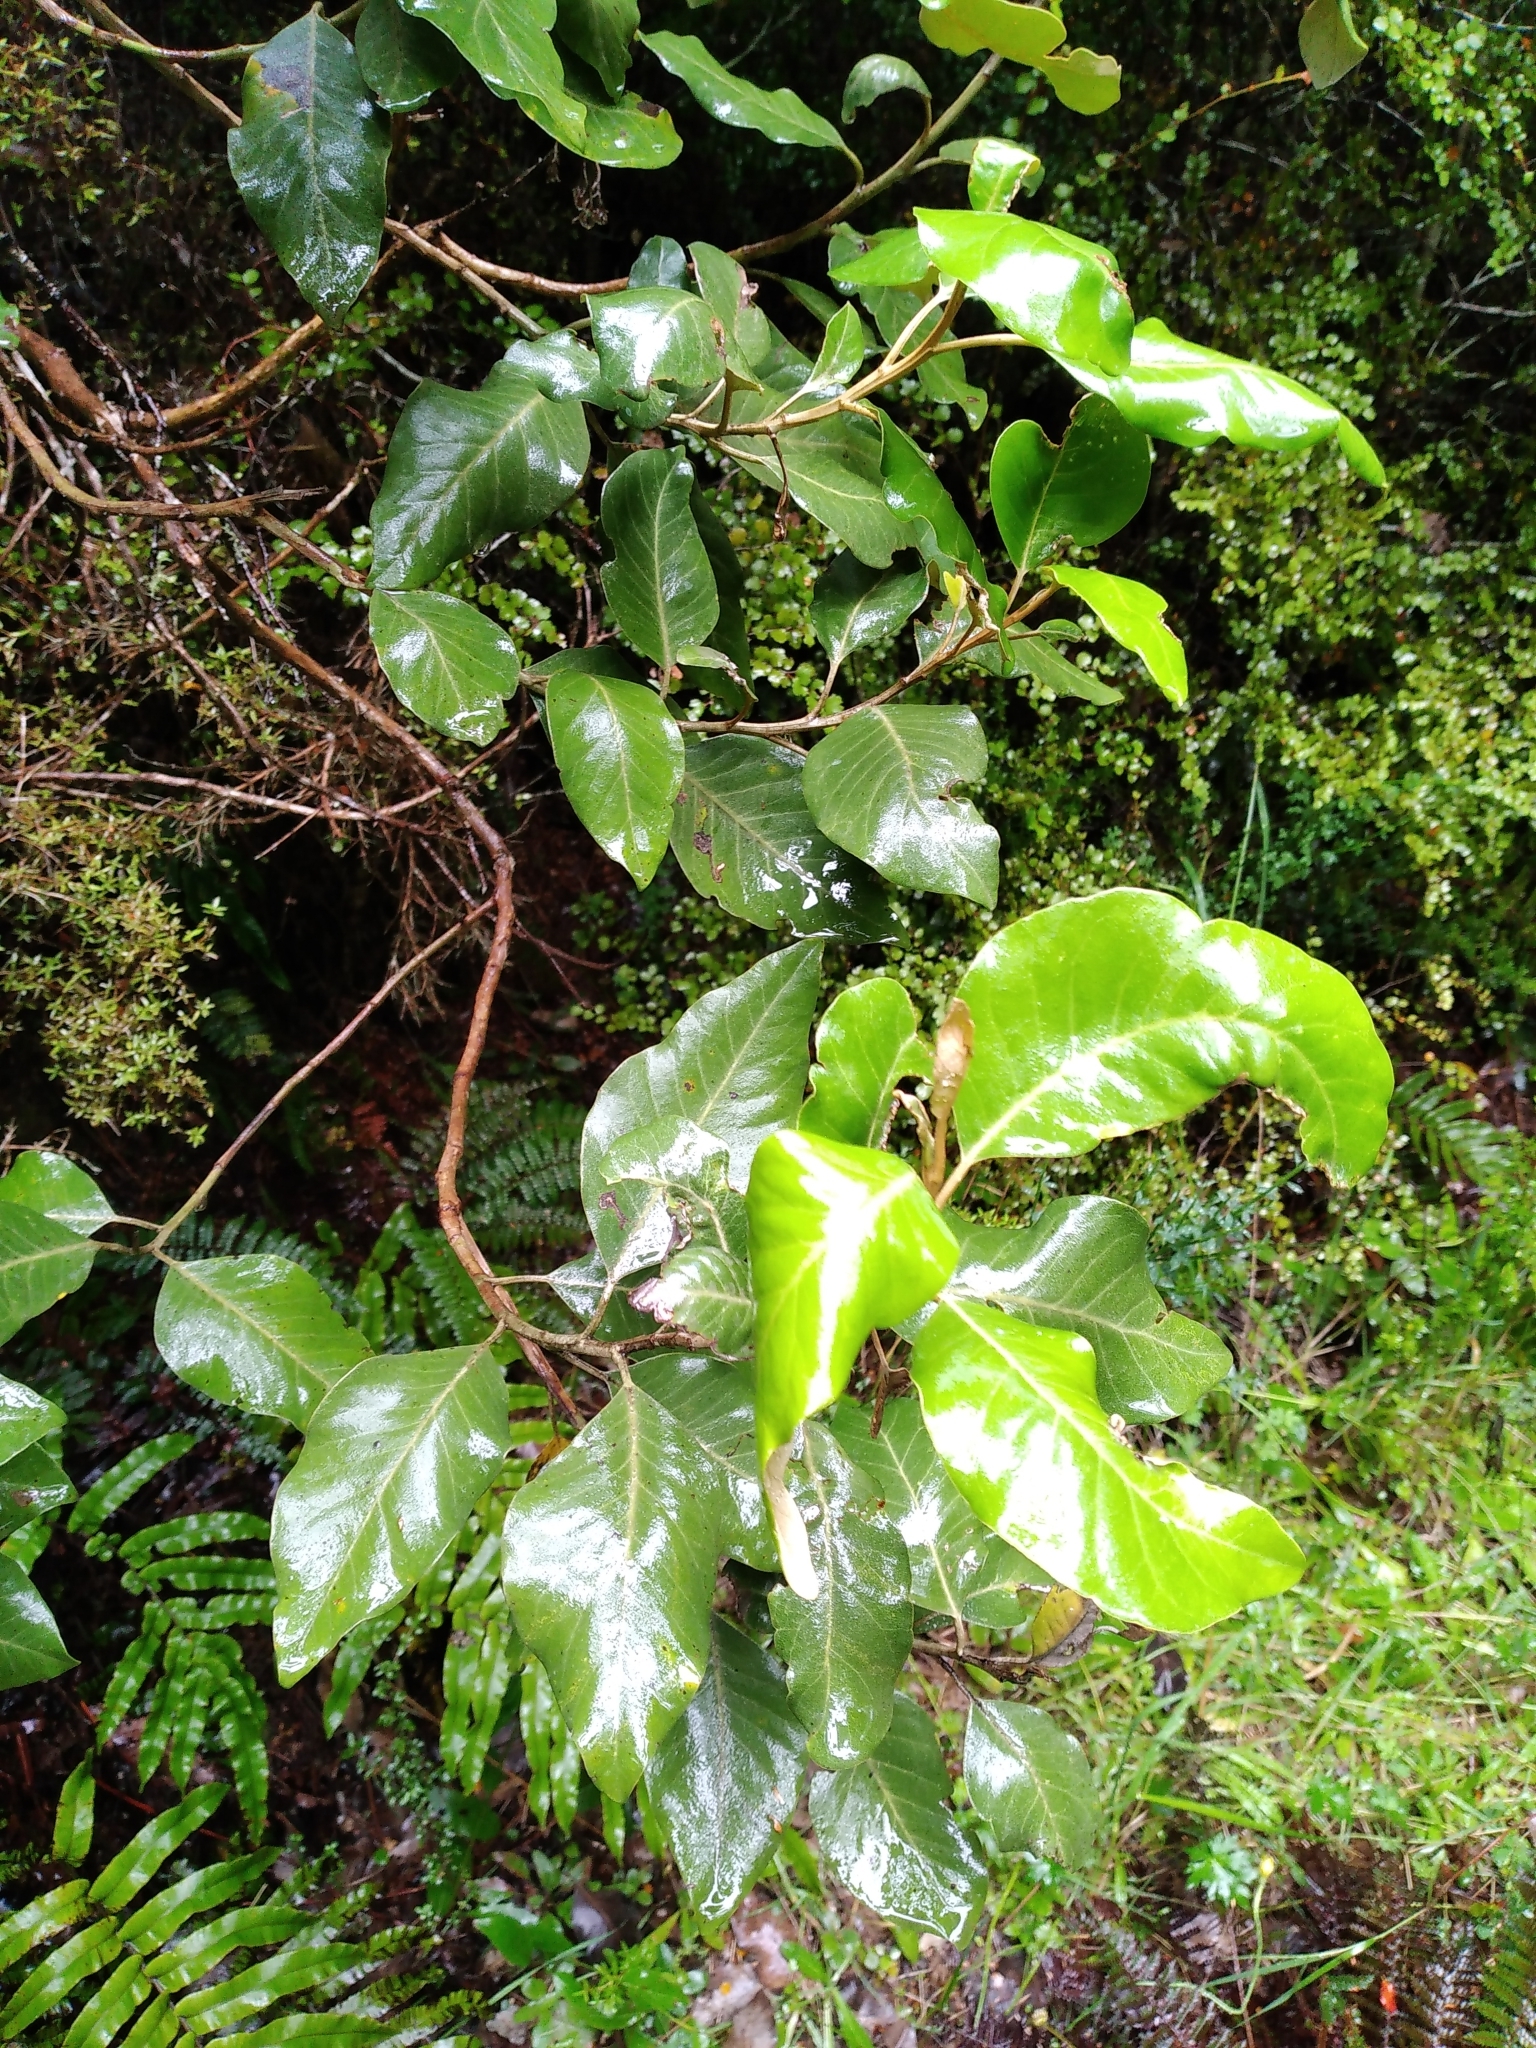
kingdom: Plantae
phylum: Tracheophyta
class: Magnoliopsida
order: Asterales
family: Asteraceae
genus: Olearia
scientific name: Olearia avicenniifolia
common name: Mangrove-leaf daisybush
